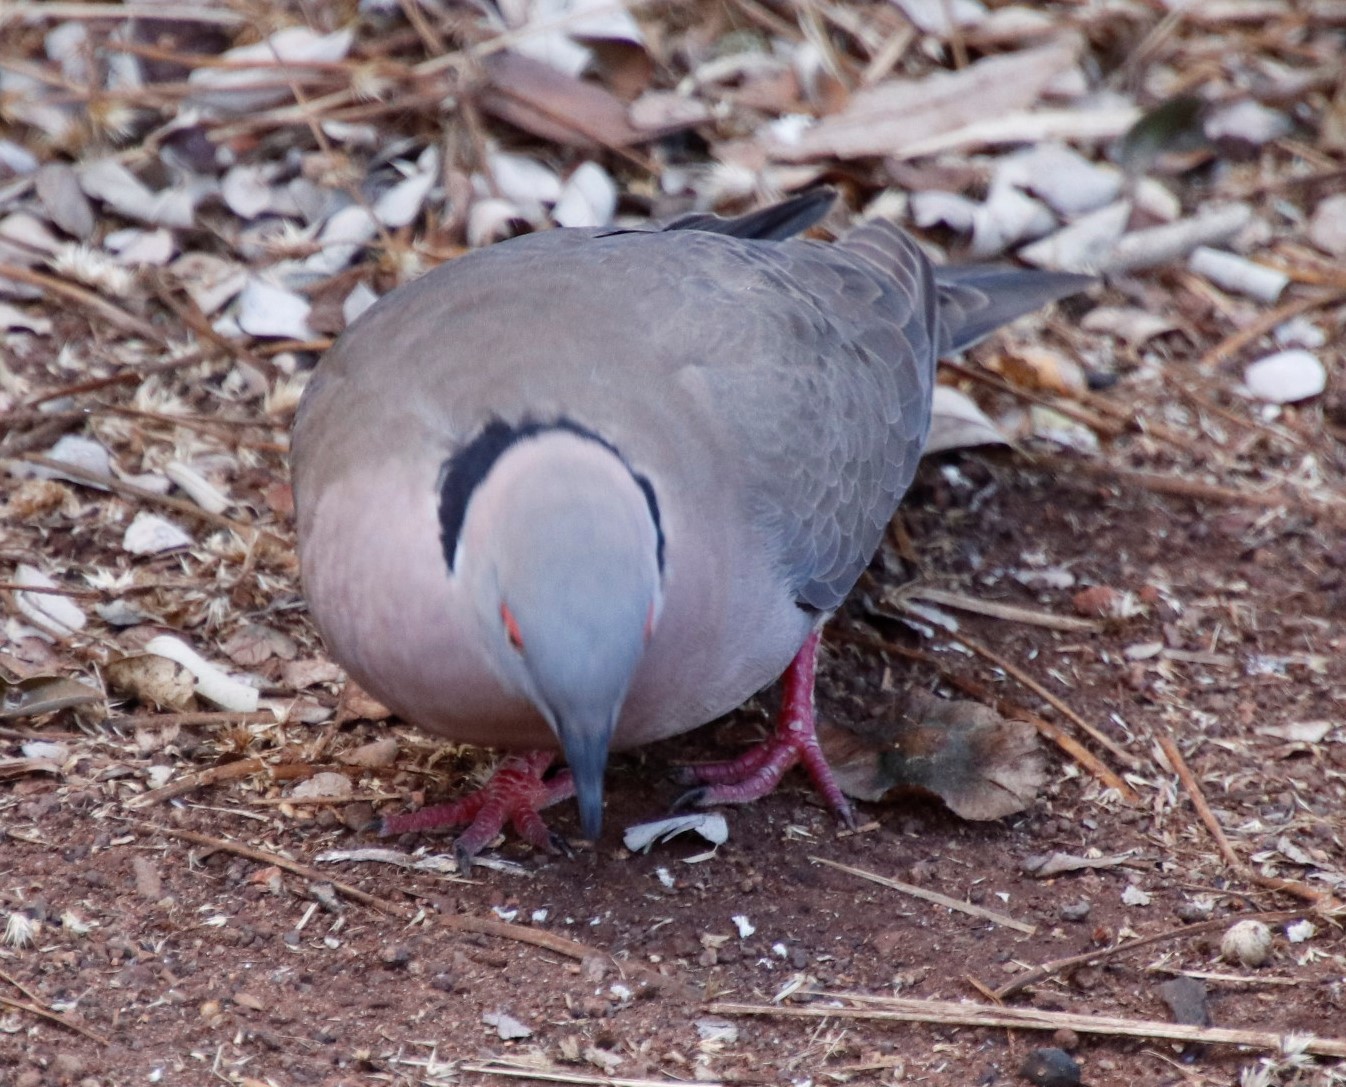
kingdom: Animalia
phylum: Chordata
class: Aves
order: Columbiformes
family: Columbidae
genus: Streptopelia
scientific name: Streptopelia decipiens
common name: Mourning collared dove
